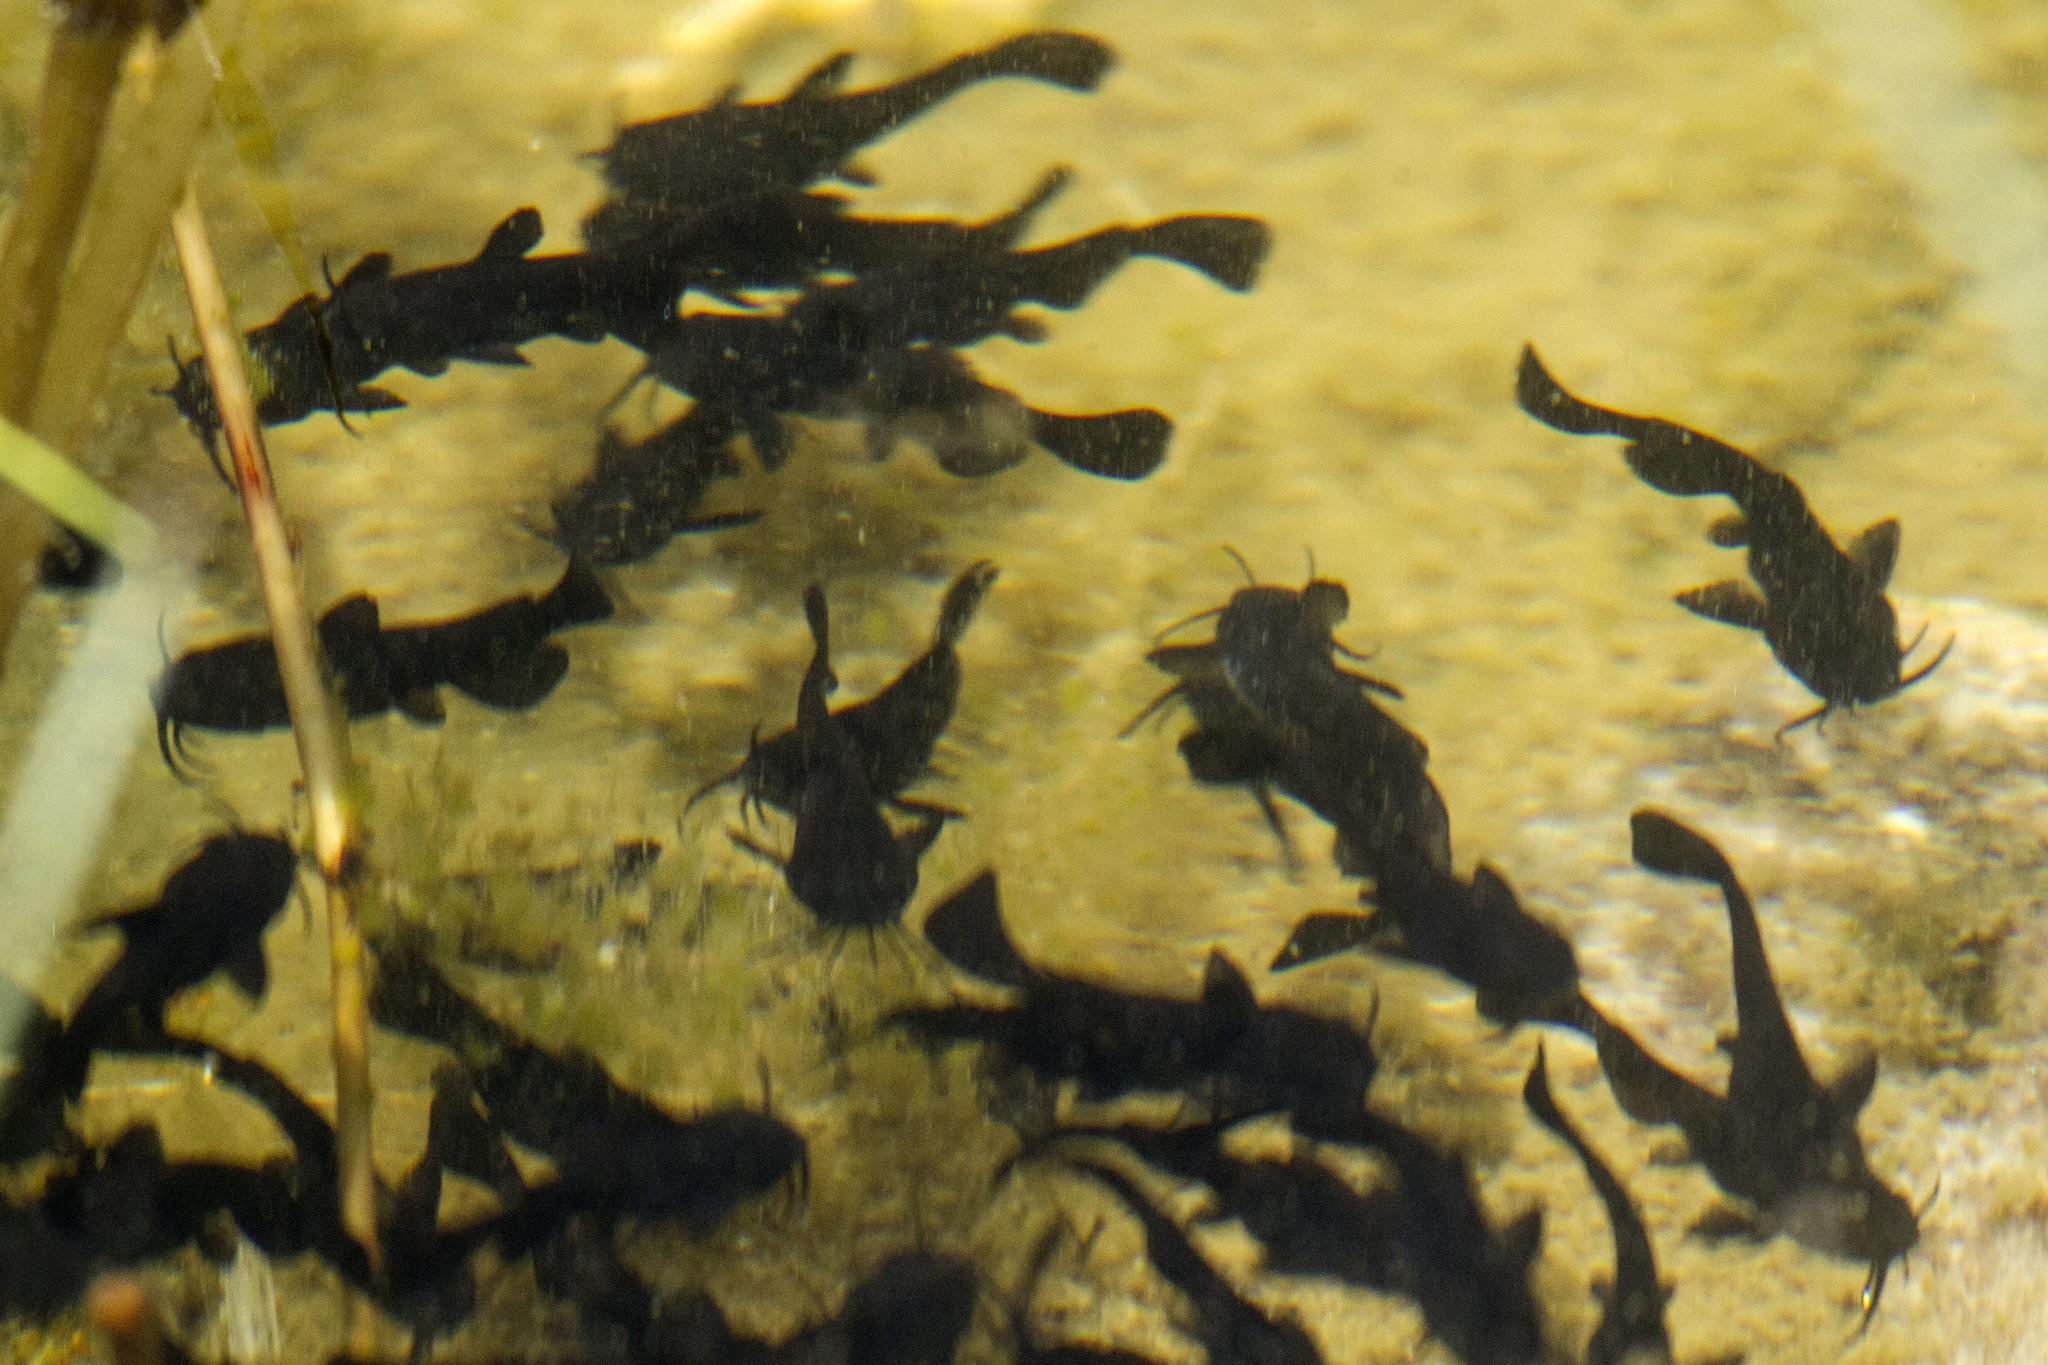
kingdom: Animalia
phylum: Chordata
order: Siluriformes
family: Ictaluridae
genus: Ameiurus
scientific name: Ameiurus melas
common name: Black bullhead
